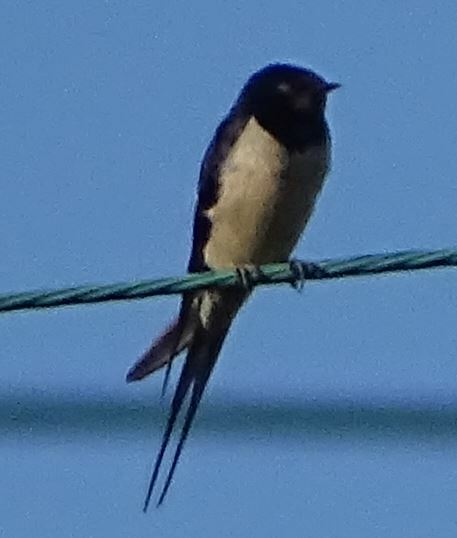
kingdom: Animalia
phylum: Chordata
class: Aves
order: Passeriformes
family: Hirundinidae
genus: Hirundo
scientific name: Hirundo rustica
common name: Barn swallow
